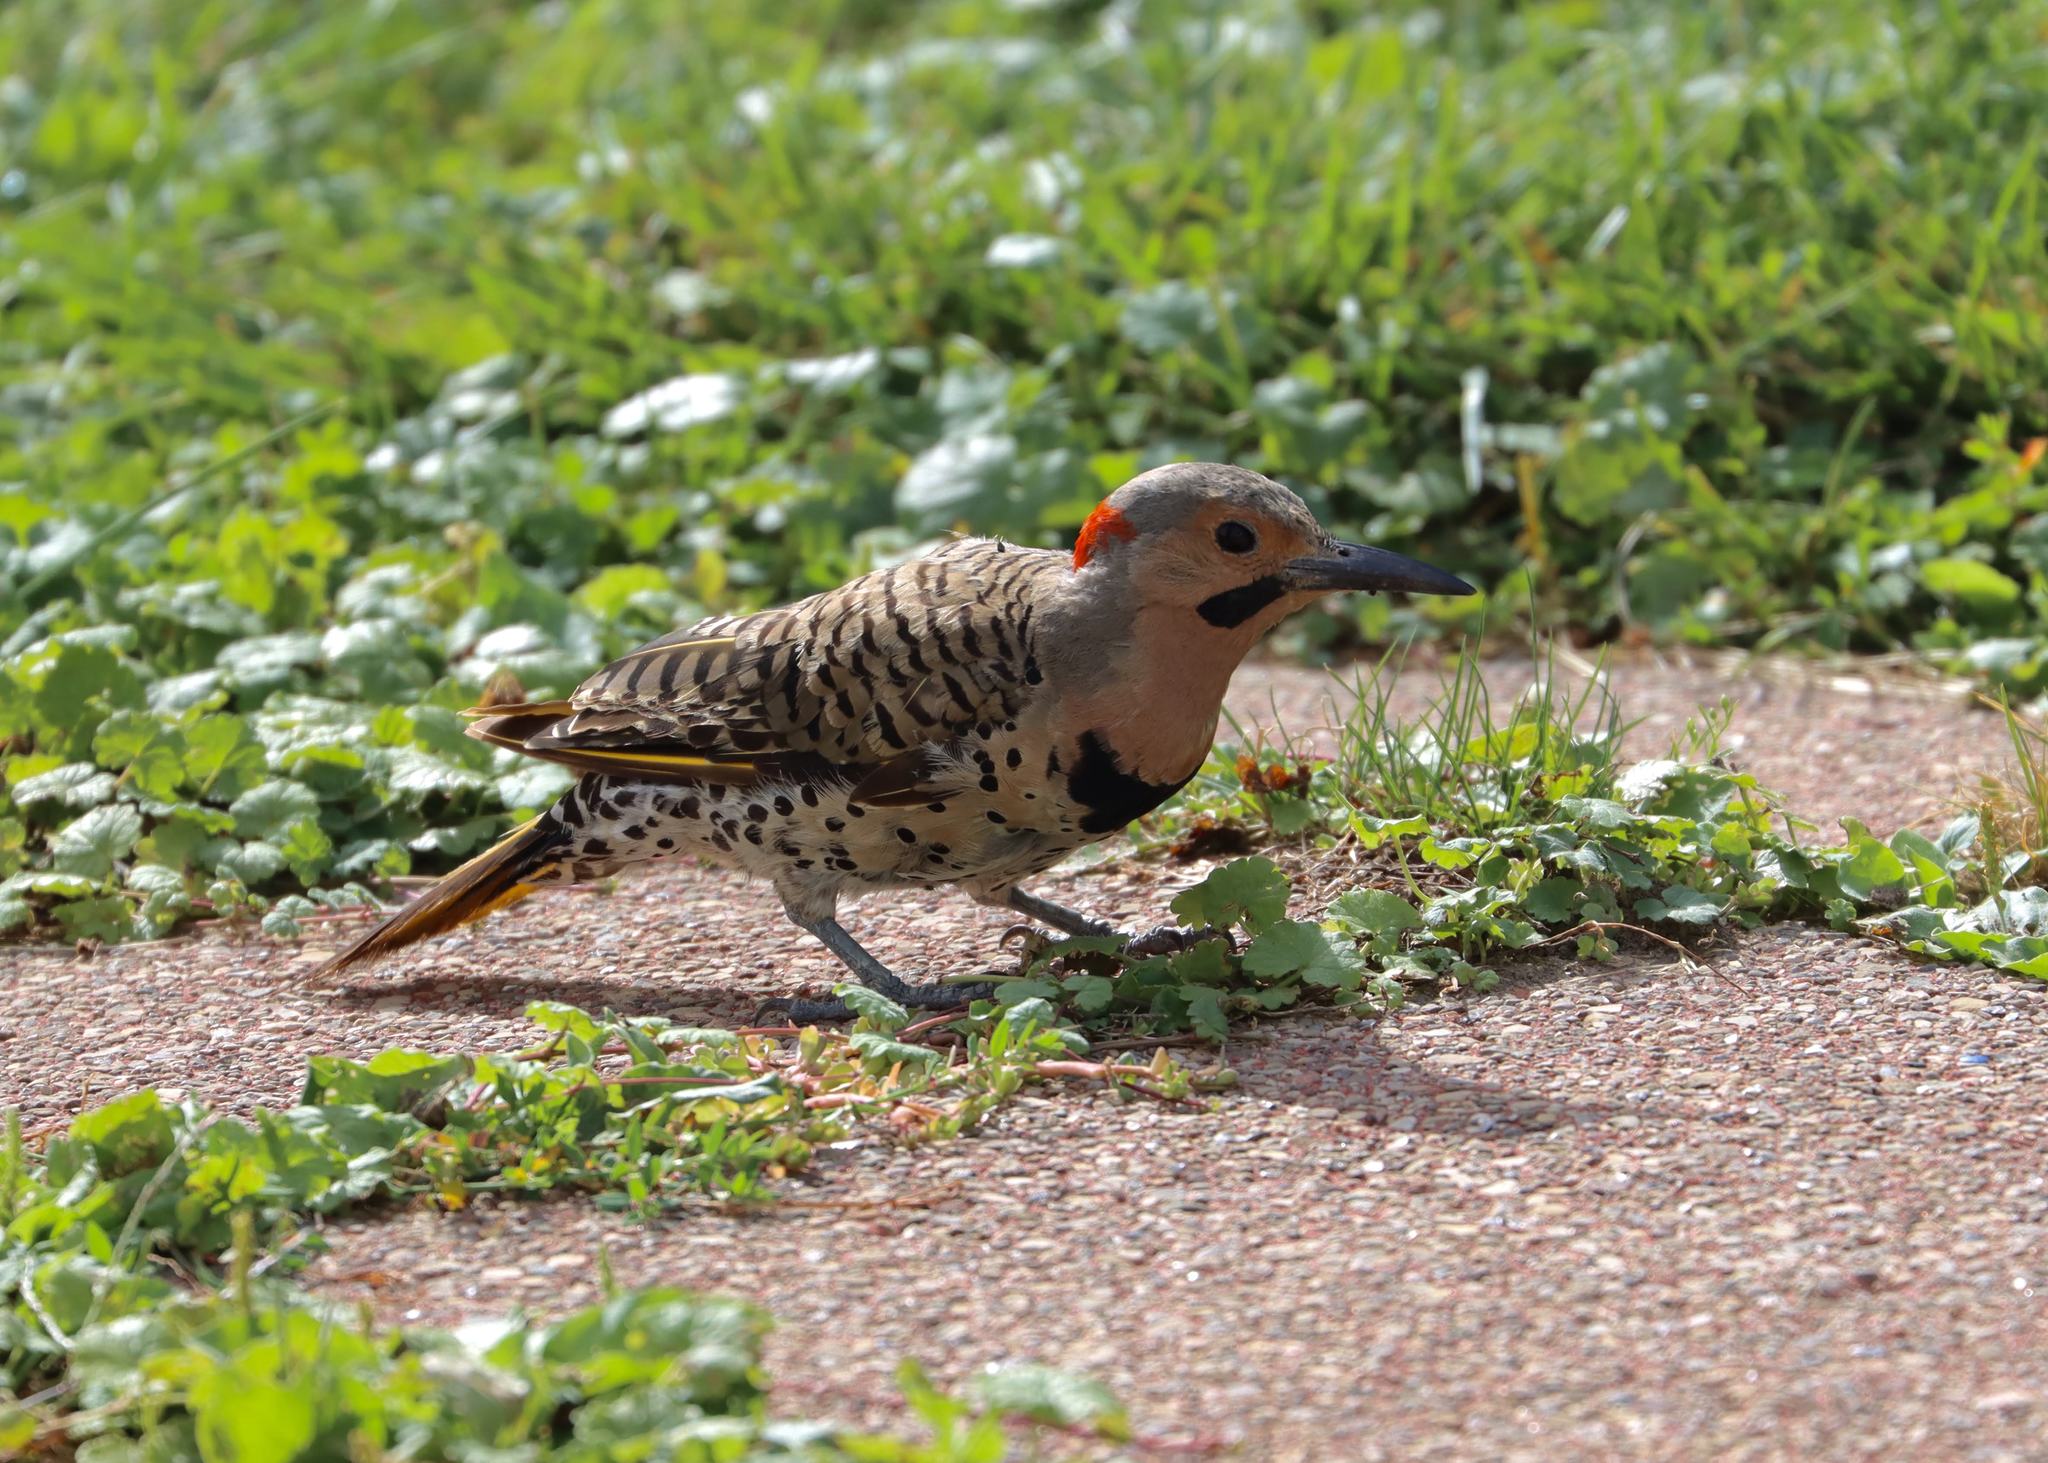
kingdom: Animalia
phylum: Chordata
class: Aves
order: Piciformes
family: Picidae
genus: Colaptes
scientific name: Colaptes auratus
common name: Northern flicker
